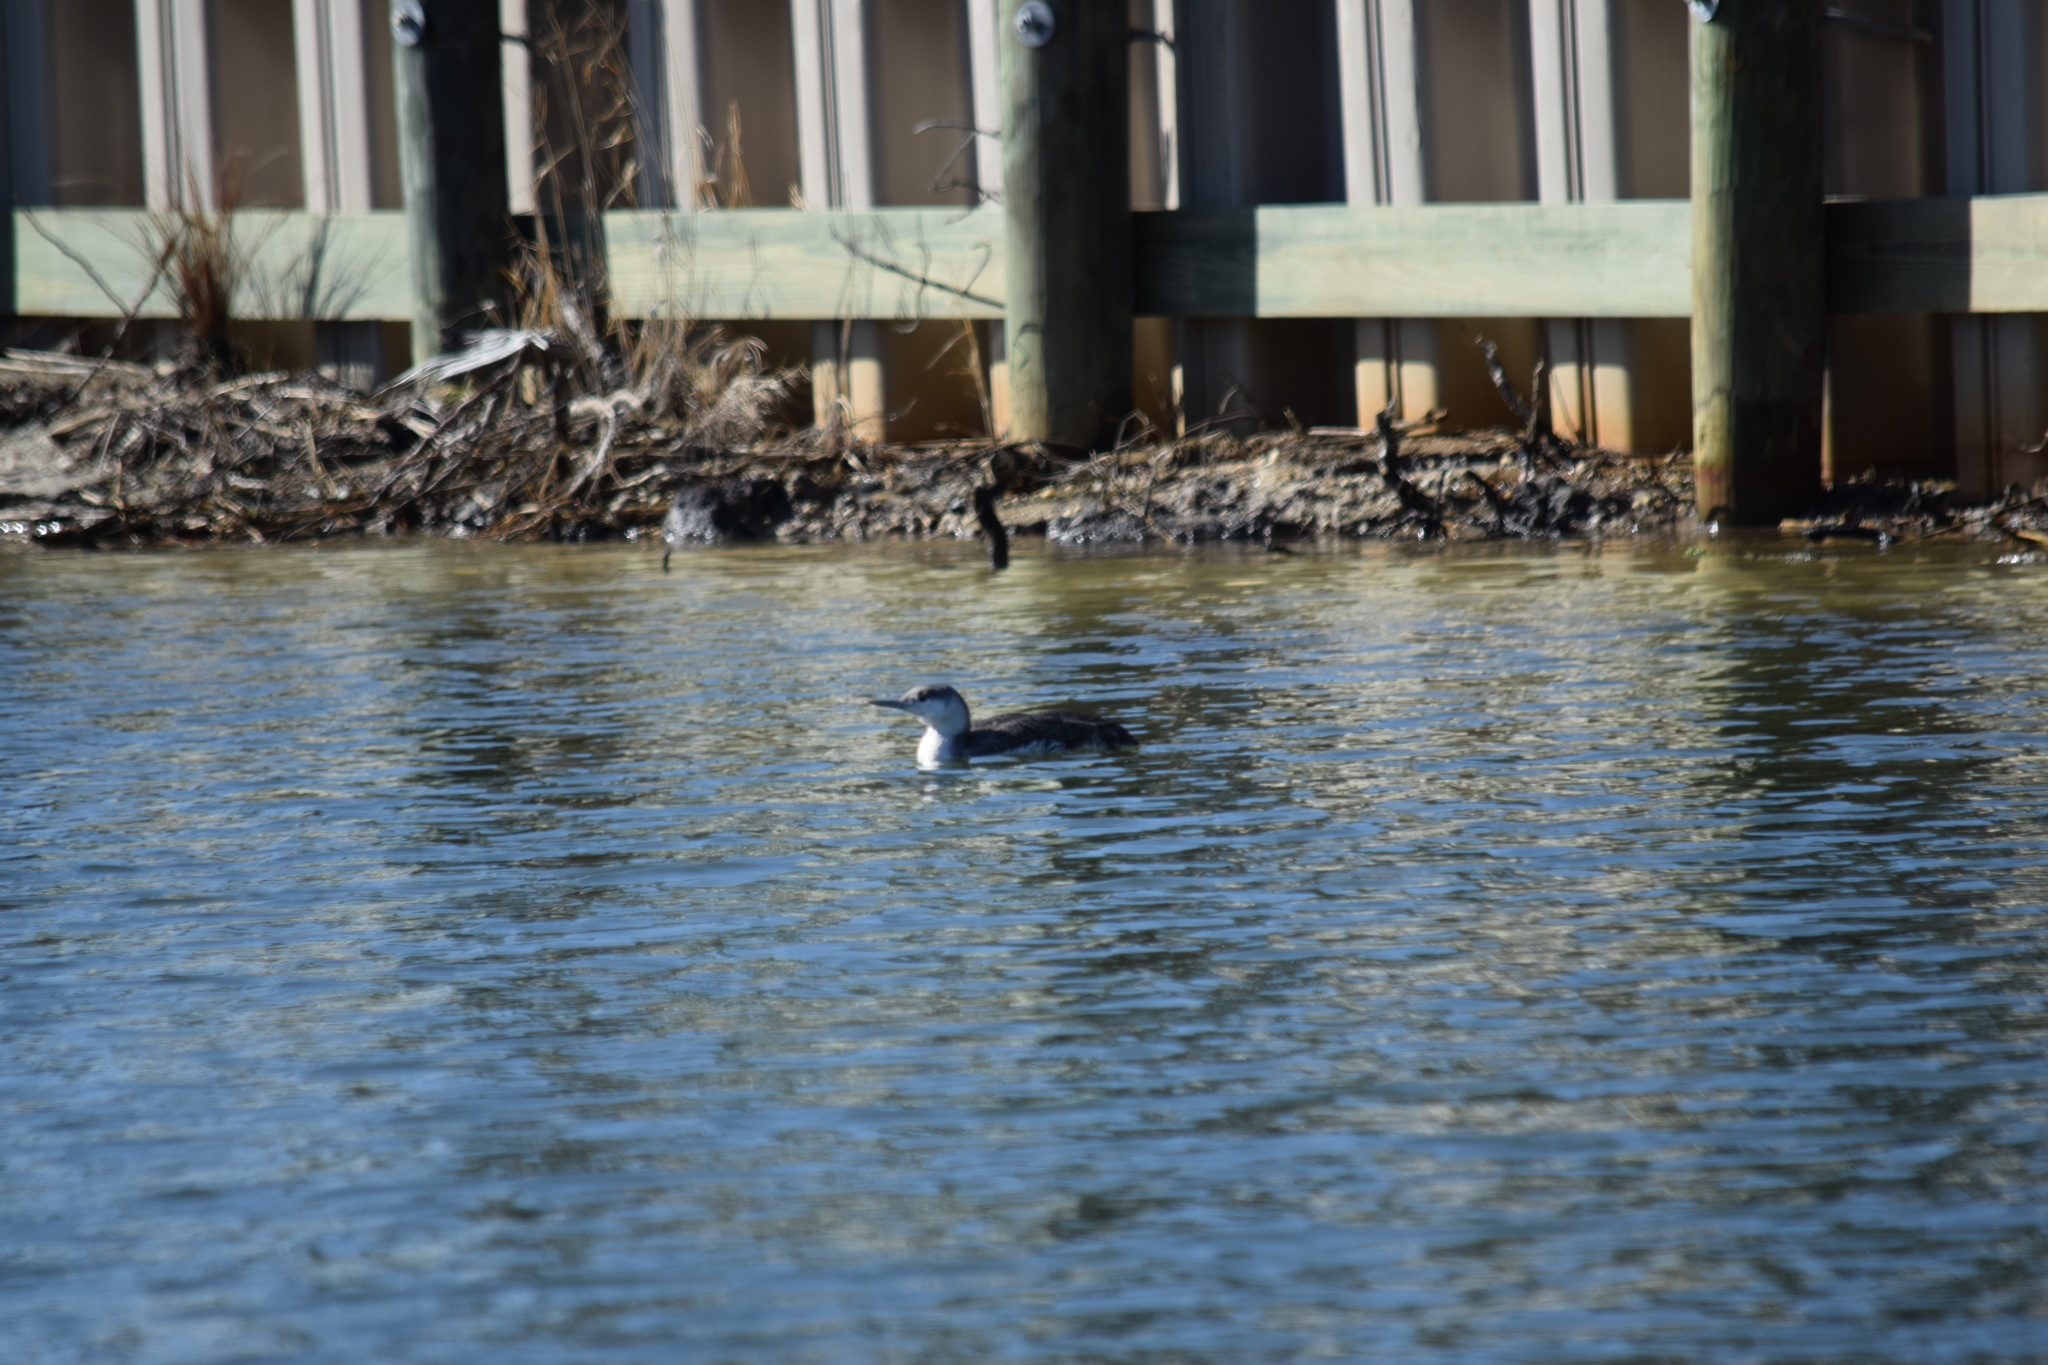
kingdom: Animalia
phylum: Chordata
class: Aves
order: Gaviiformes
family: Gaviidae
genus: Gavia
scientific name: Gavia stellata
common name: Red-throated loon
